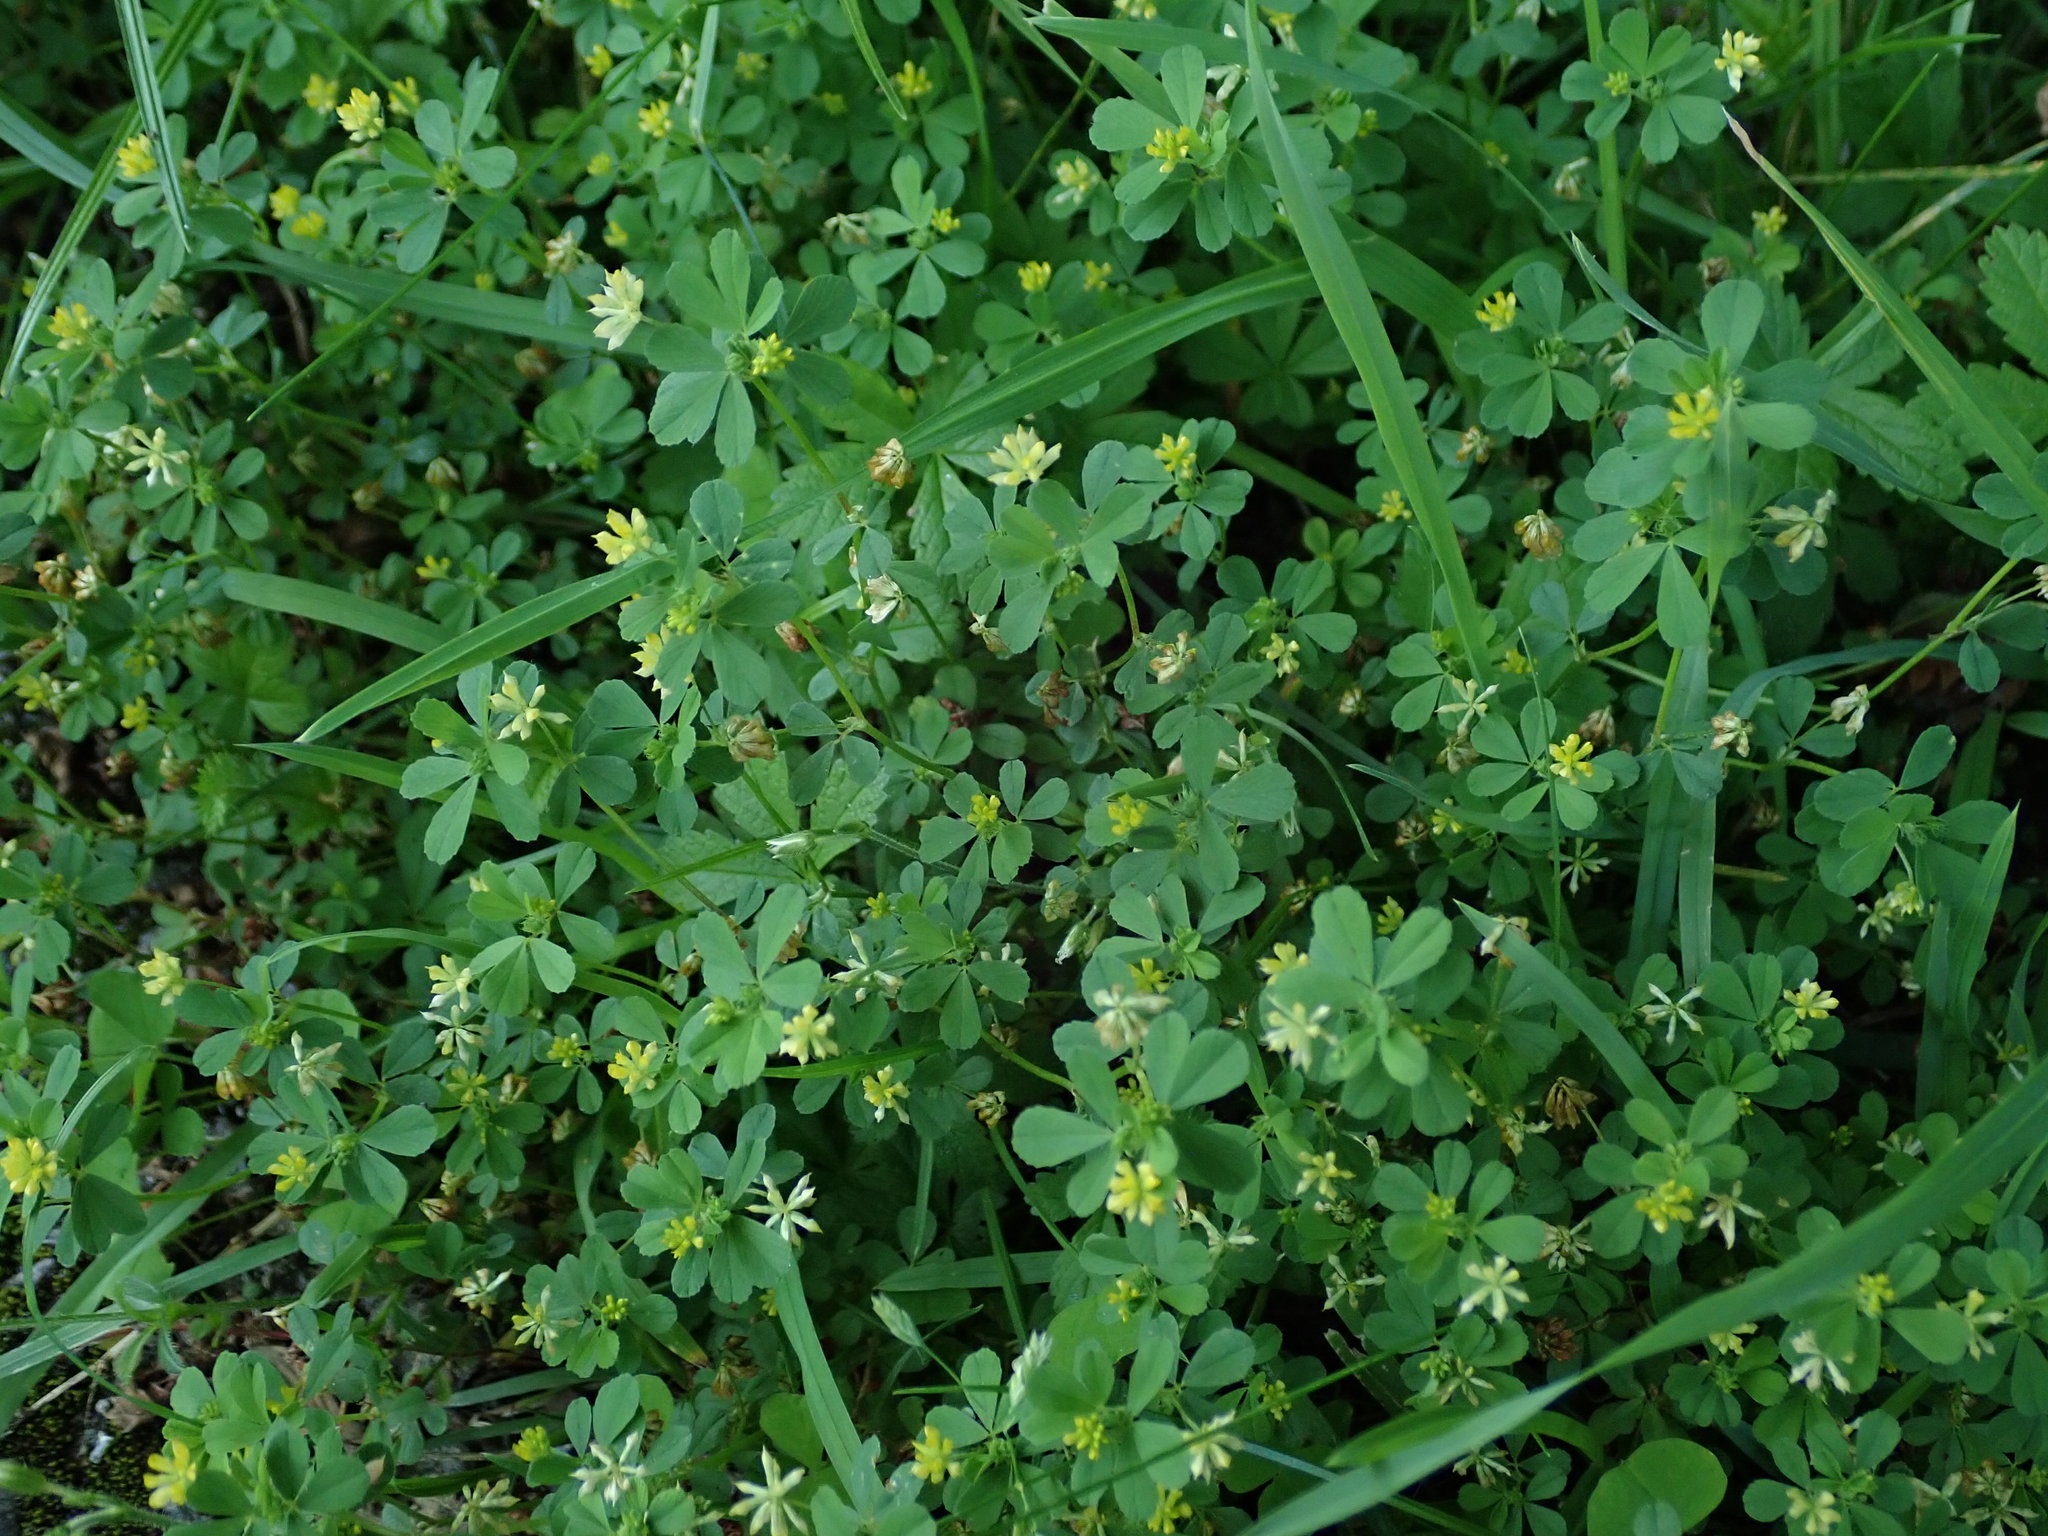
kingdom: Plantae
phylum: Tracheophyta
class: Magnoliopsida
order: Fabales
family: Fabaceae
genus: Trifolium
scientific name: Trifolium dubium
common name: Suckling clover
